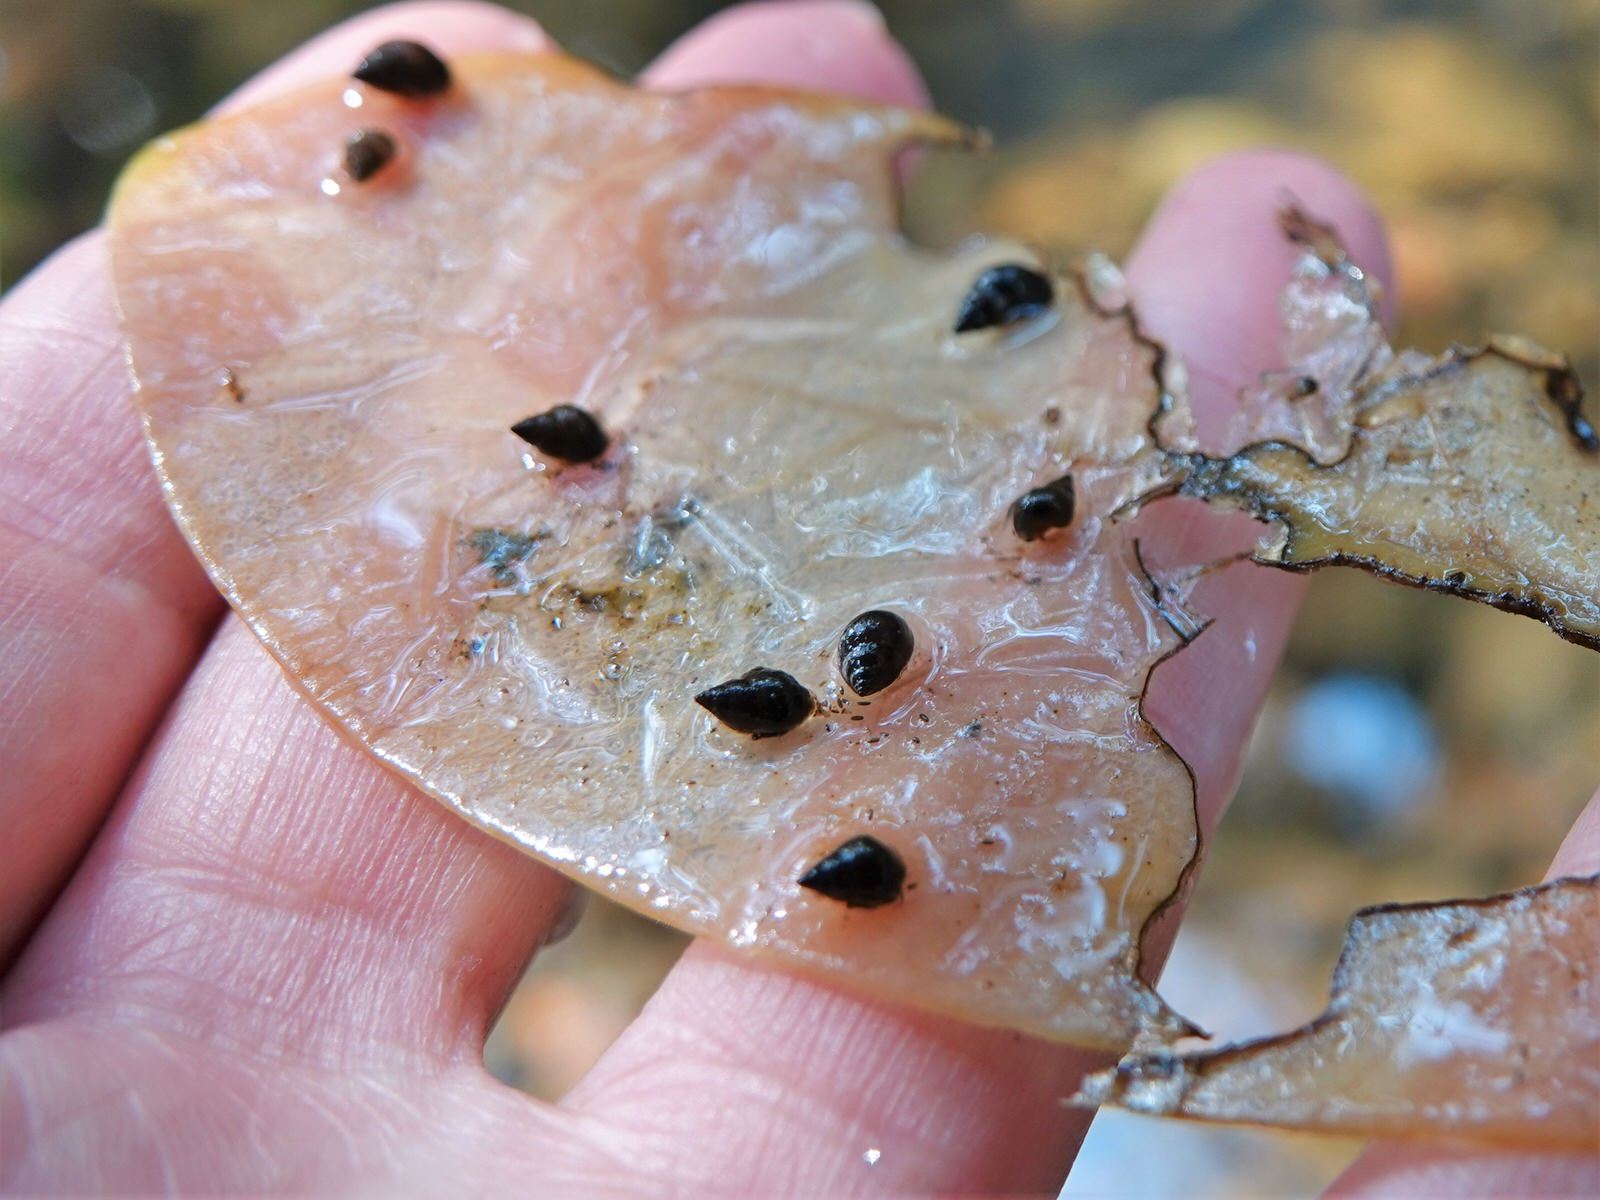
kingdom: Animalia
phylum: Mollusca
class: Gastropoda
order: Littorinimorpha
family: Tateidae
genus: Potamopyrgus
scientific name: Potamopyrgus antipodarum
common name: Jenkins' spire snail
